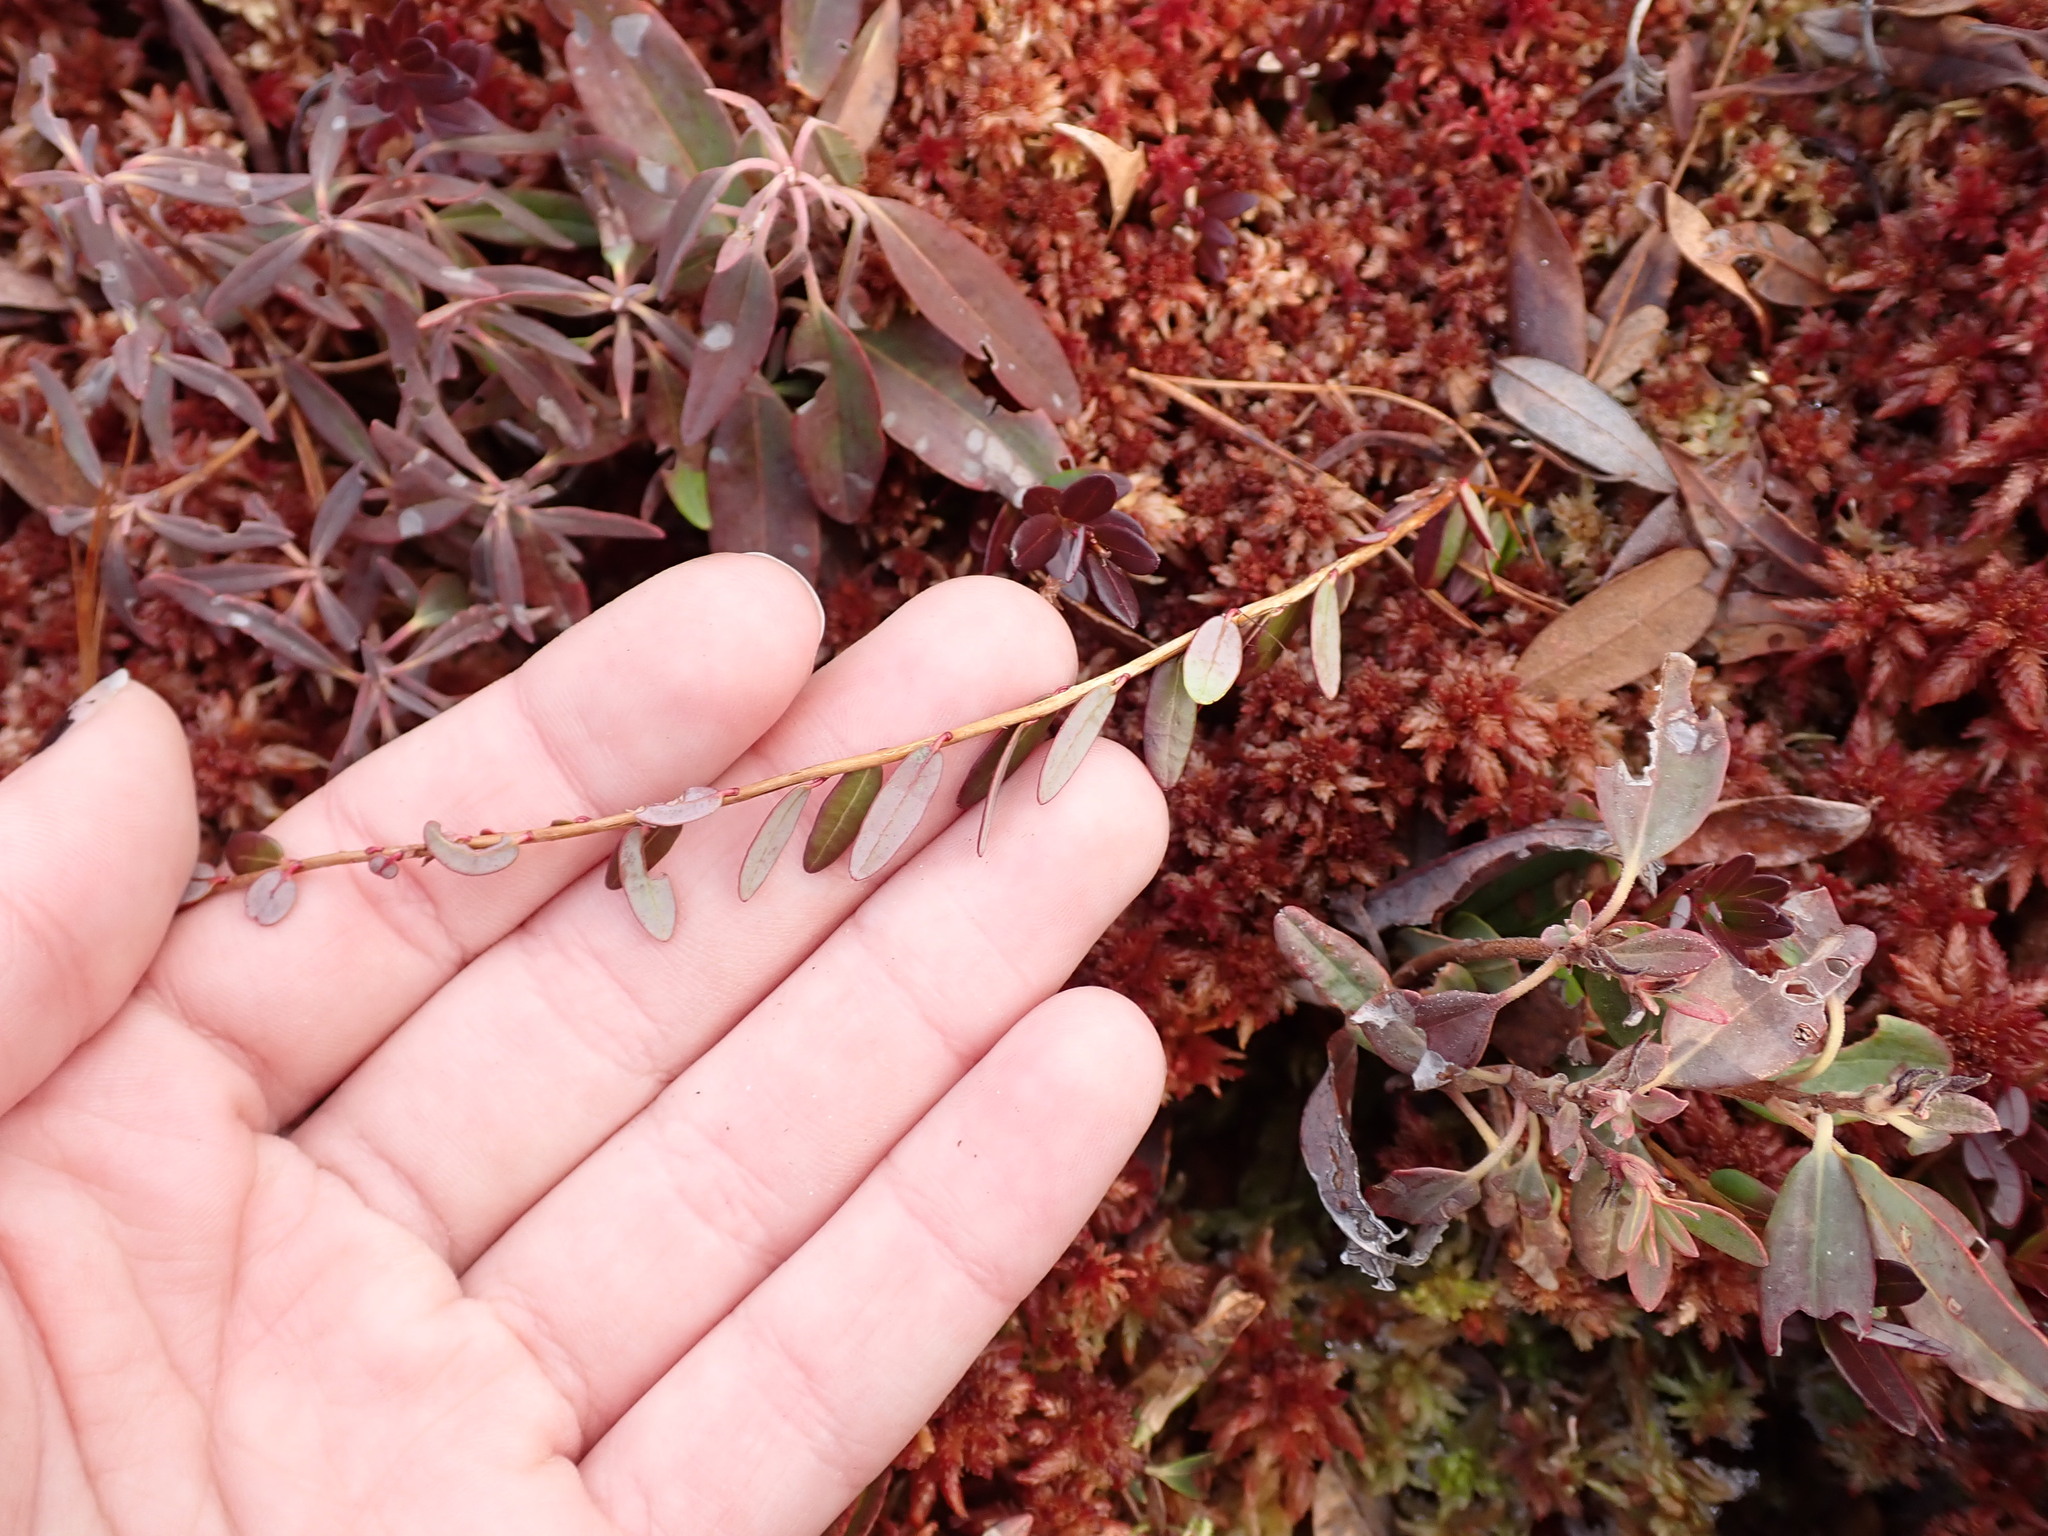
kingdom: Plantae
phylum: Tracheophyta
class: Magnoliopsida
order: Ericales
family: Ericaceae
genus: Vaccinium
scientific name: Vaccinium macrocarpon
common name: American cranberry
